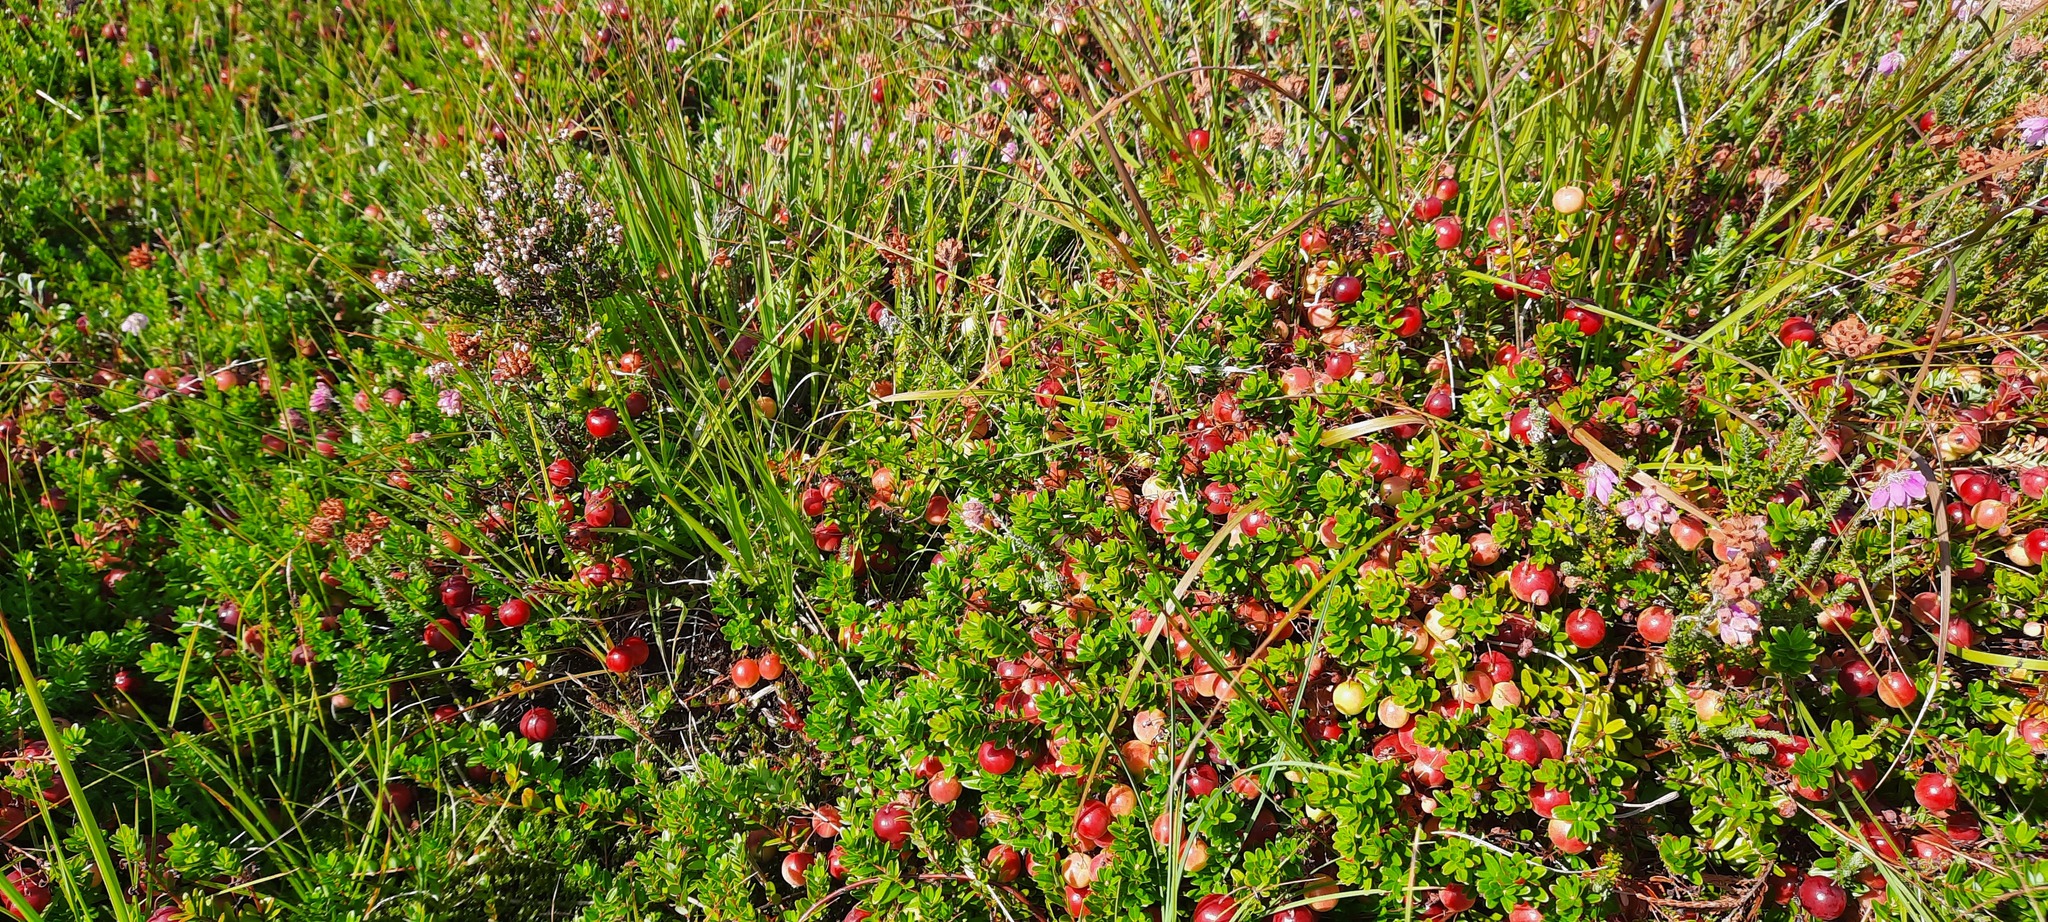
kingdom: Plantae
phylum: Tracheophyta
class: Magnoliopsida
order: Ericales
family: Ericaceae
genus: Vaccinium
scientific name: Vaccinium macrocarpon
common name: American cranberry
